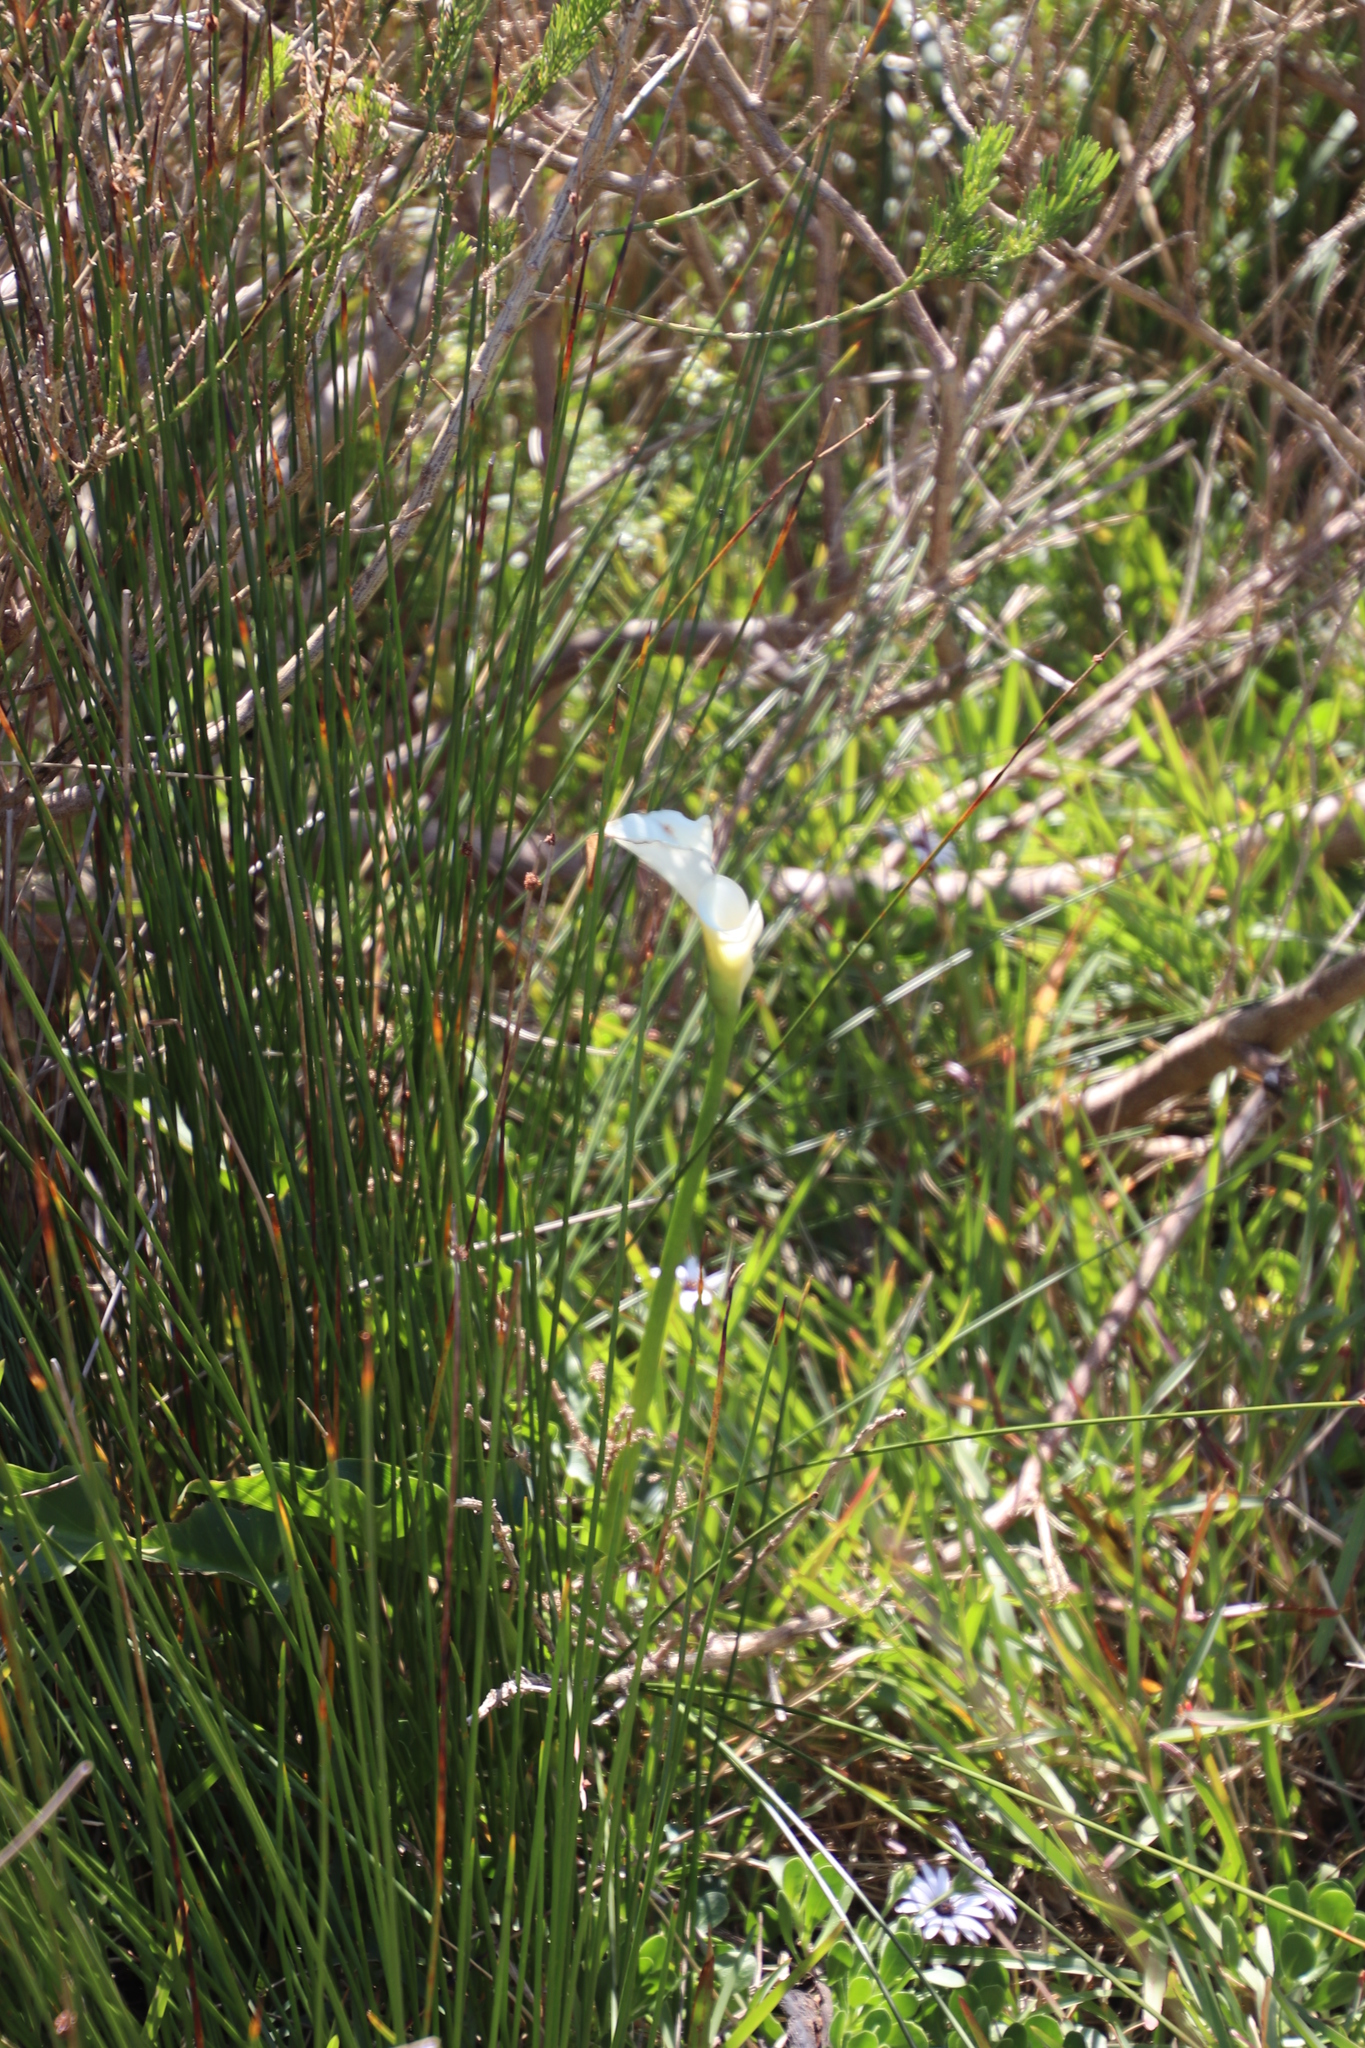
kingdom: Plantae
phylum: Tracheophyta
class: Liliopsida
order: Alismatales
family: Araceae
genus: Zantedeschia
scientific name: Zantedeschia aethiopica
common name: Altar-lily
